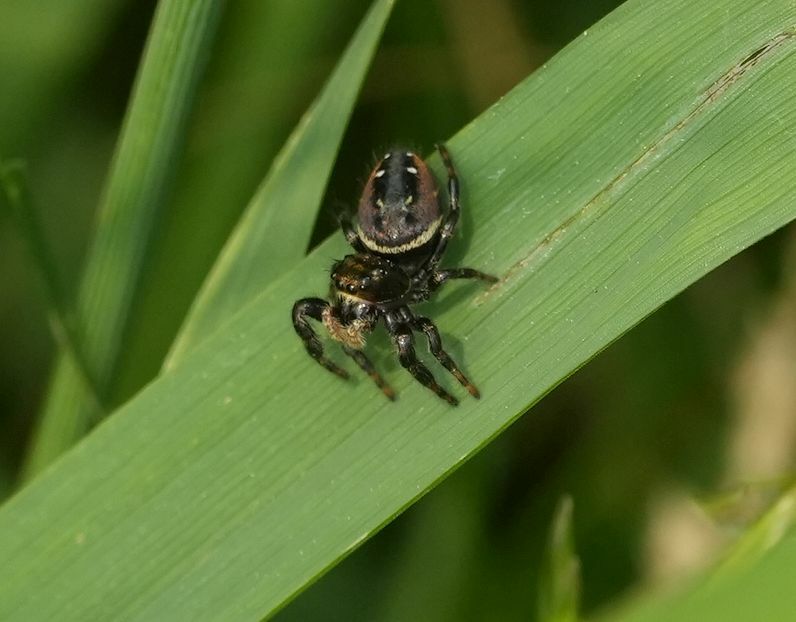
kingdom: Animalia
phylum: Arthropoda
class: Arachnida
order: Araneae
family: Salticidae
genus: Phidippus
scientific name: Phidippus clarus
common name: Brilliant jumping spider
